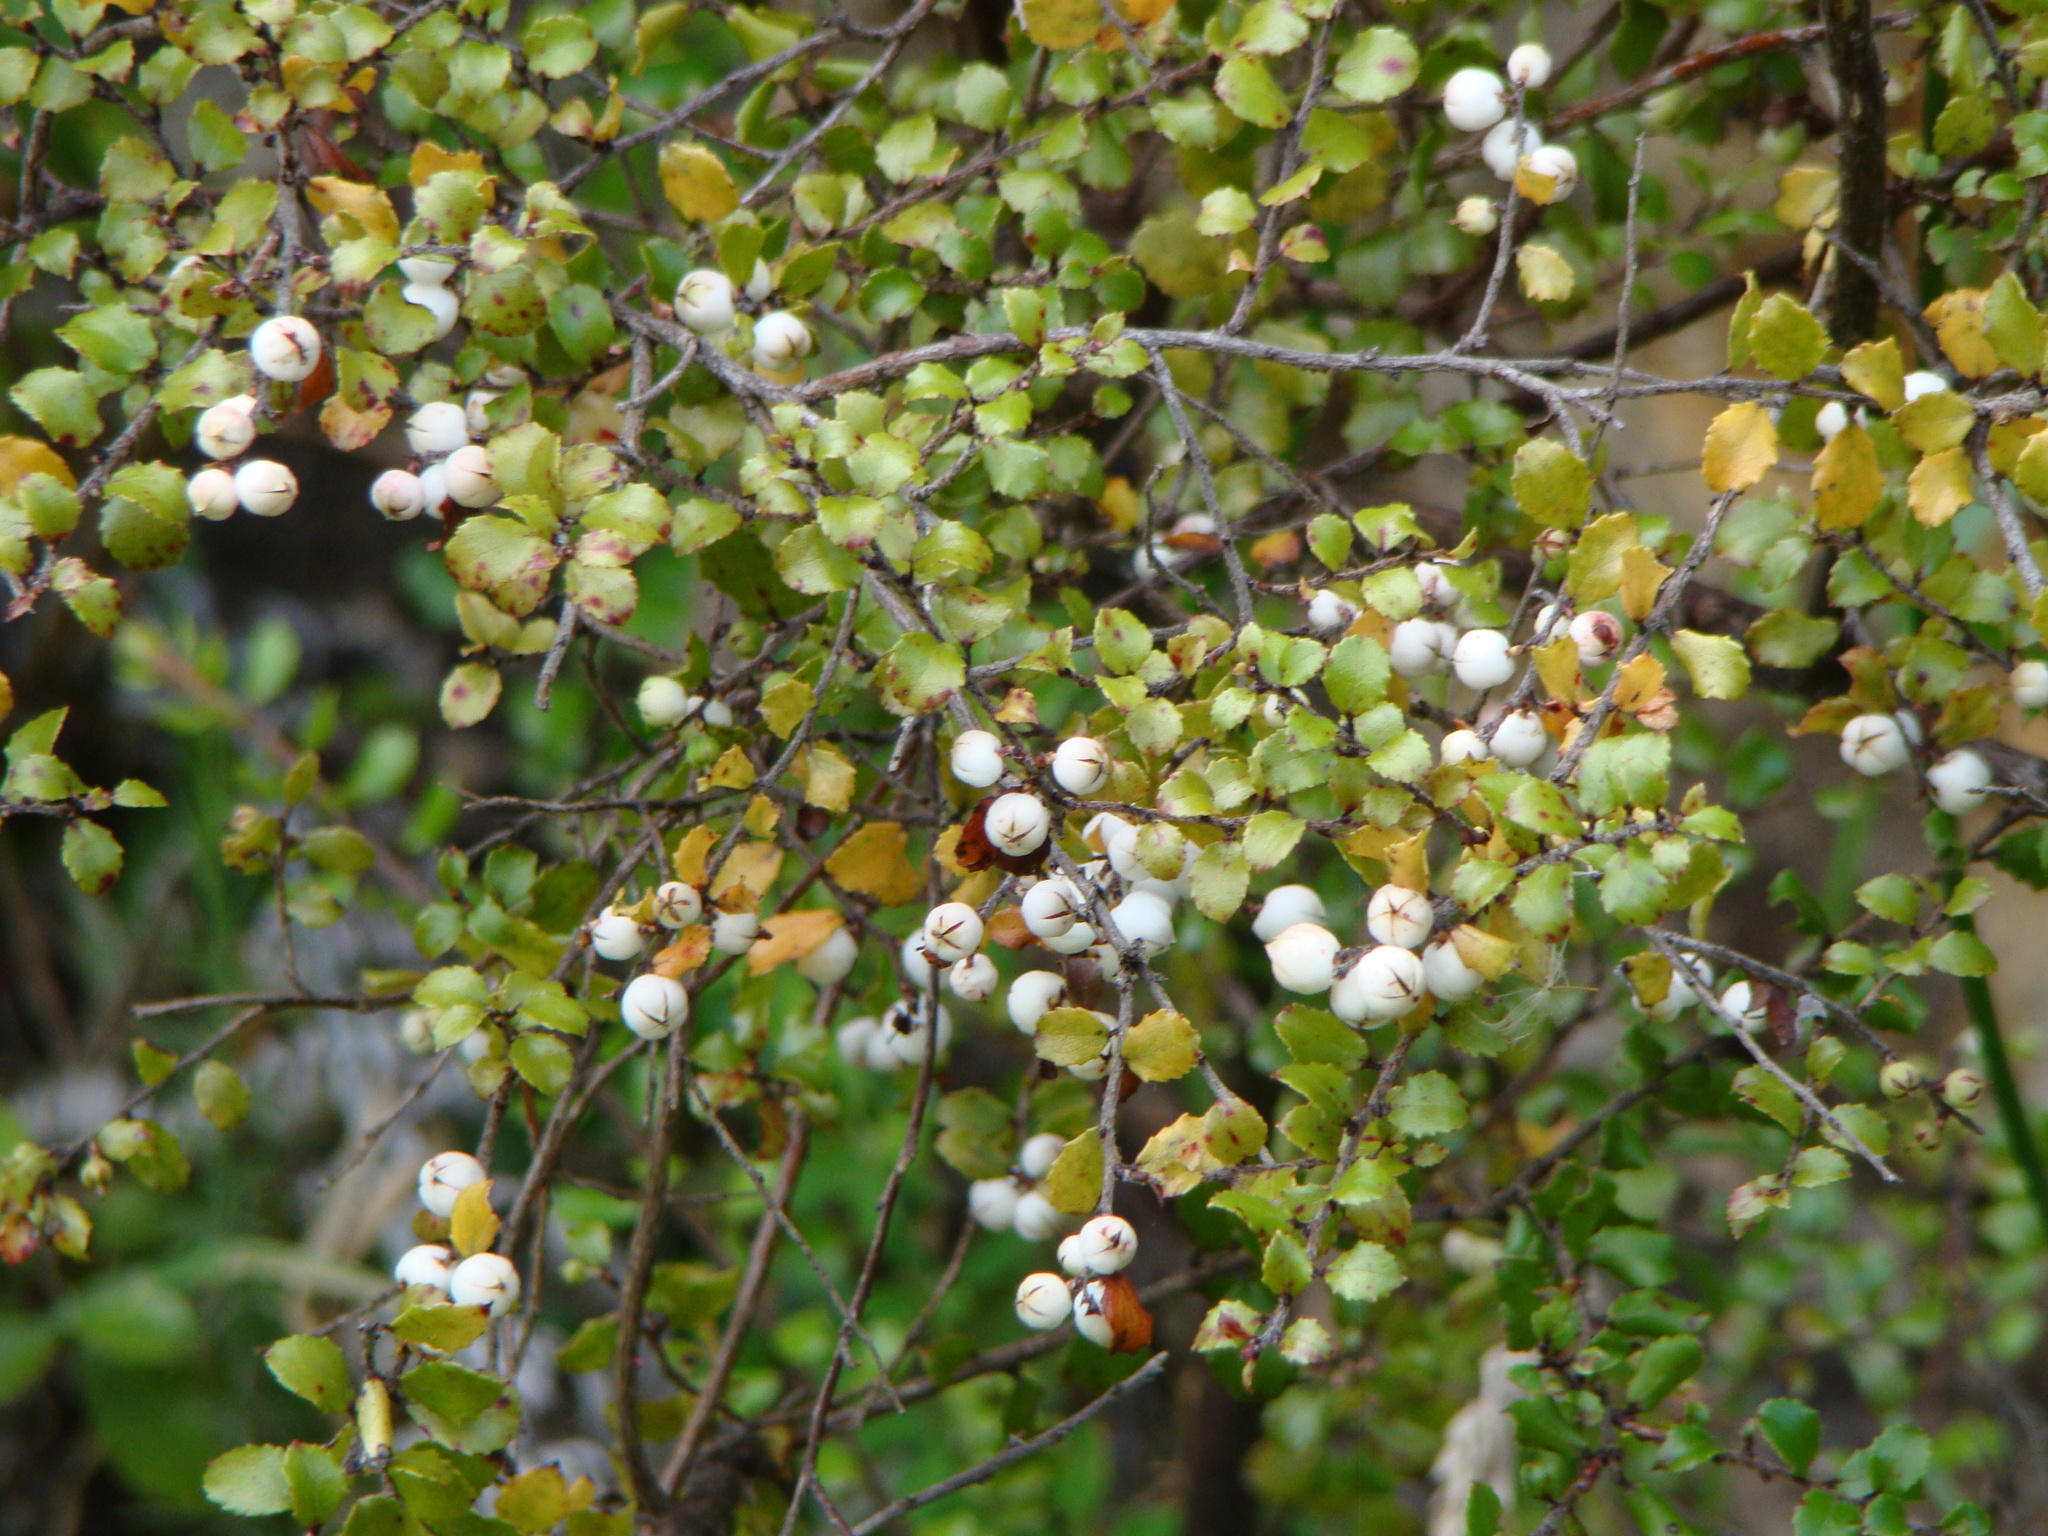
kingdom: Plantae
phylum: Tracheophyta
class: Magnoliopsida
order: Ericales
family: Ericaceae
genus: Gaultheria
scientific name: Gaultheria antipoda
